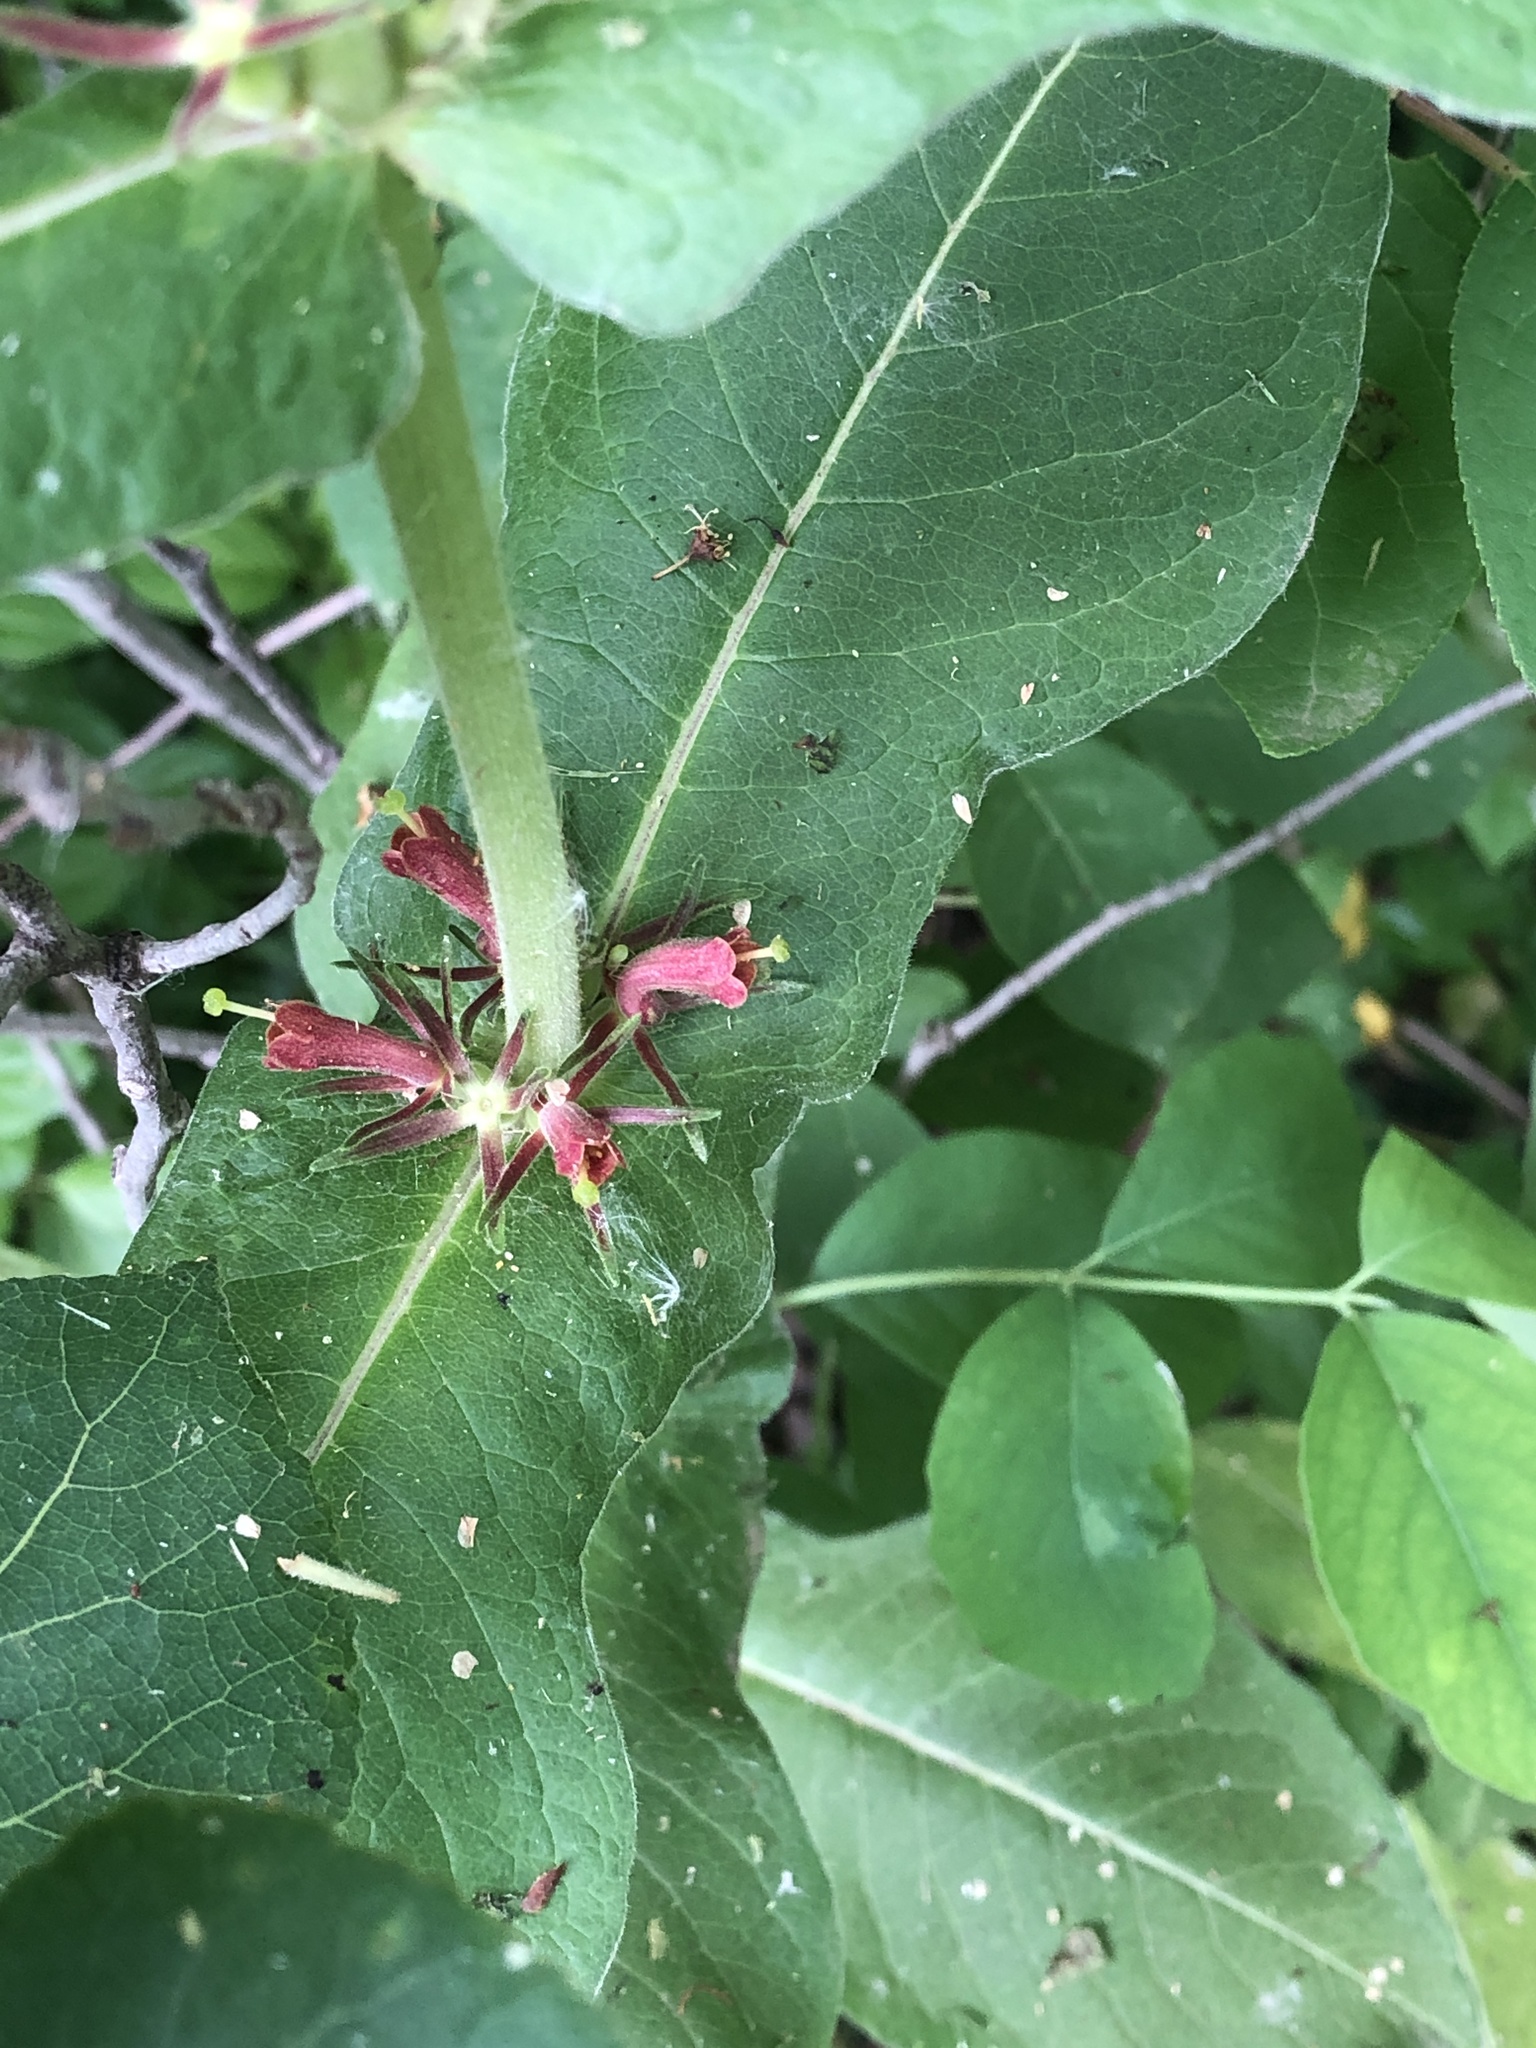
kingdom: Plantae
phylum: Tracheophyta
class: Magnoliopsida
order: Dipsacales
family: Caprifoliaceae
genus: Triosteum
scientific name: Triosteum perfoliatum
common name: Common horse-gentian
